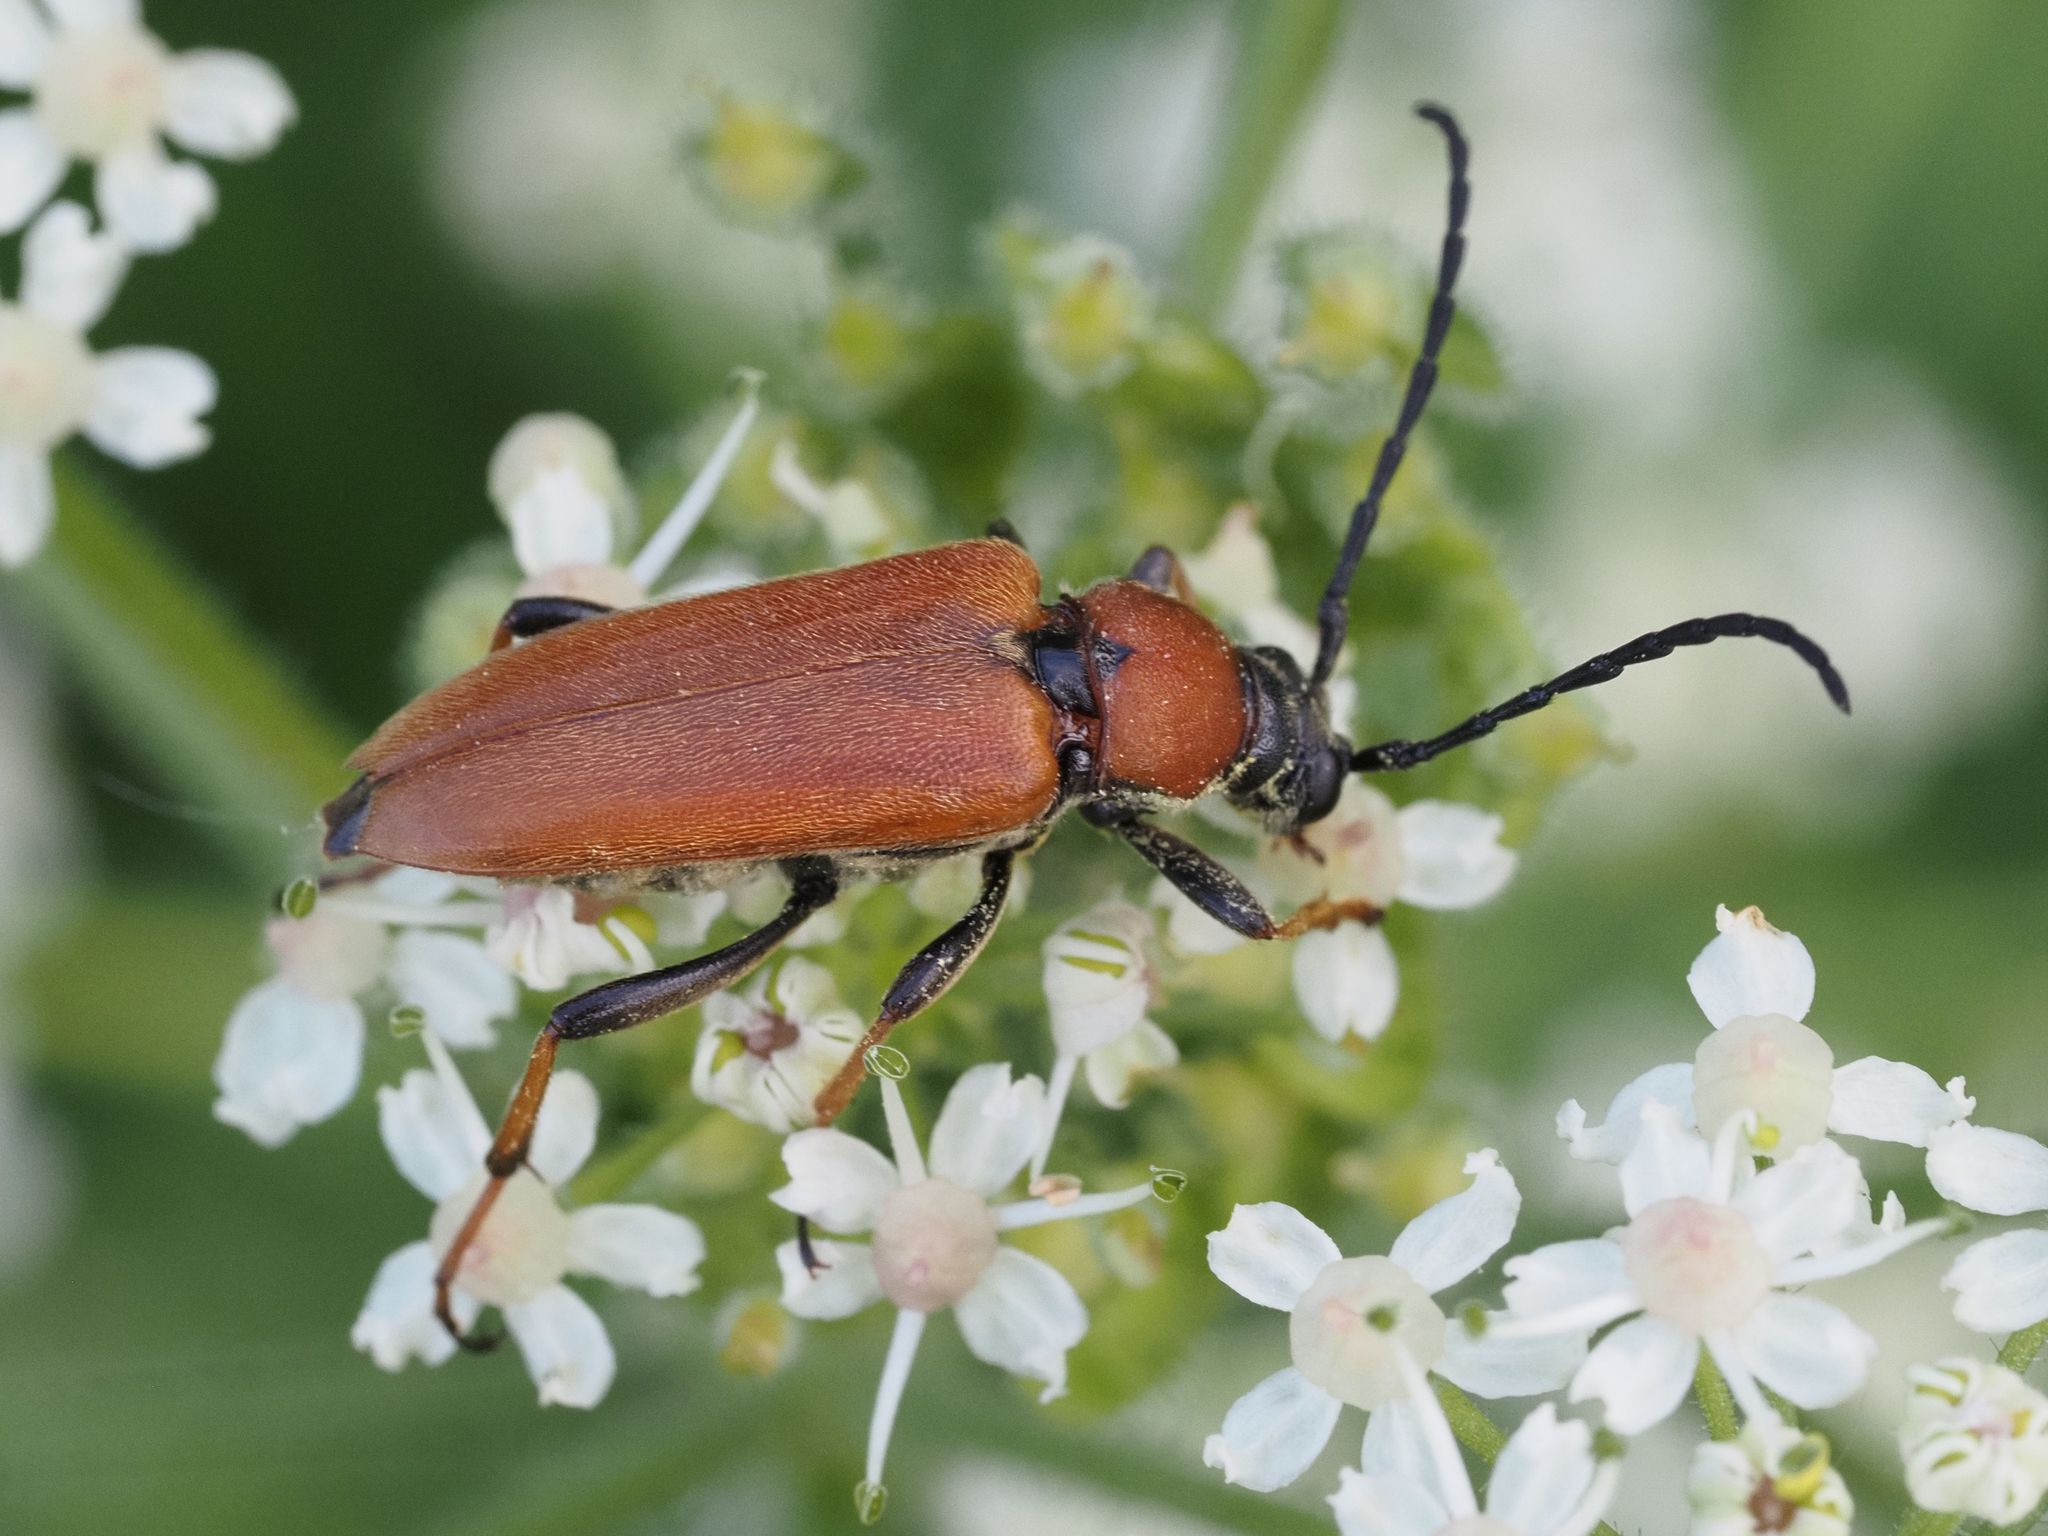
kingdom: Animalia
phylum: Arthropoda
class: Insecta
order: Coleoptera
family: Cerambycidae
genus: Stictoleptura
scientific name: Stictoleptura rubra
